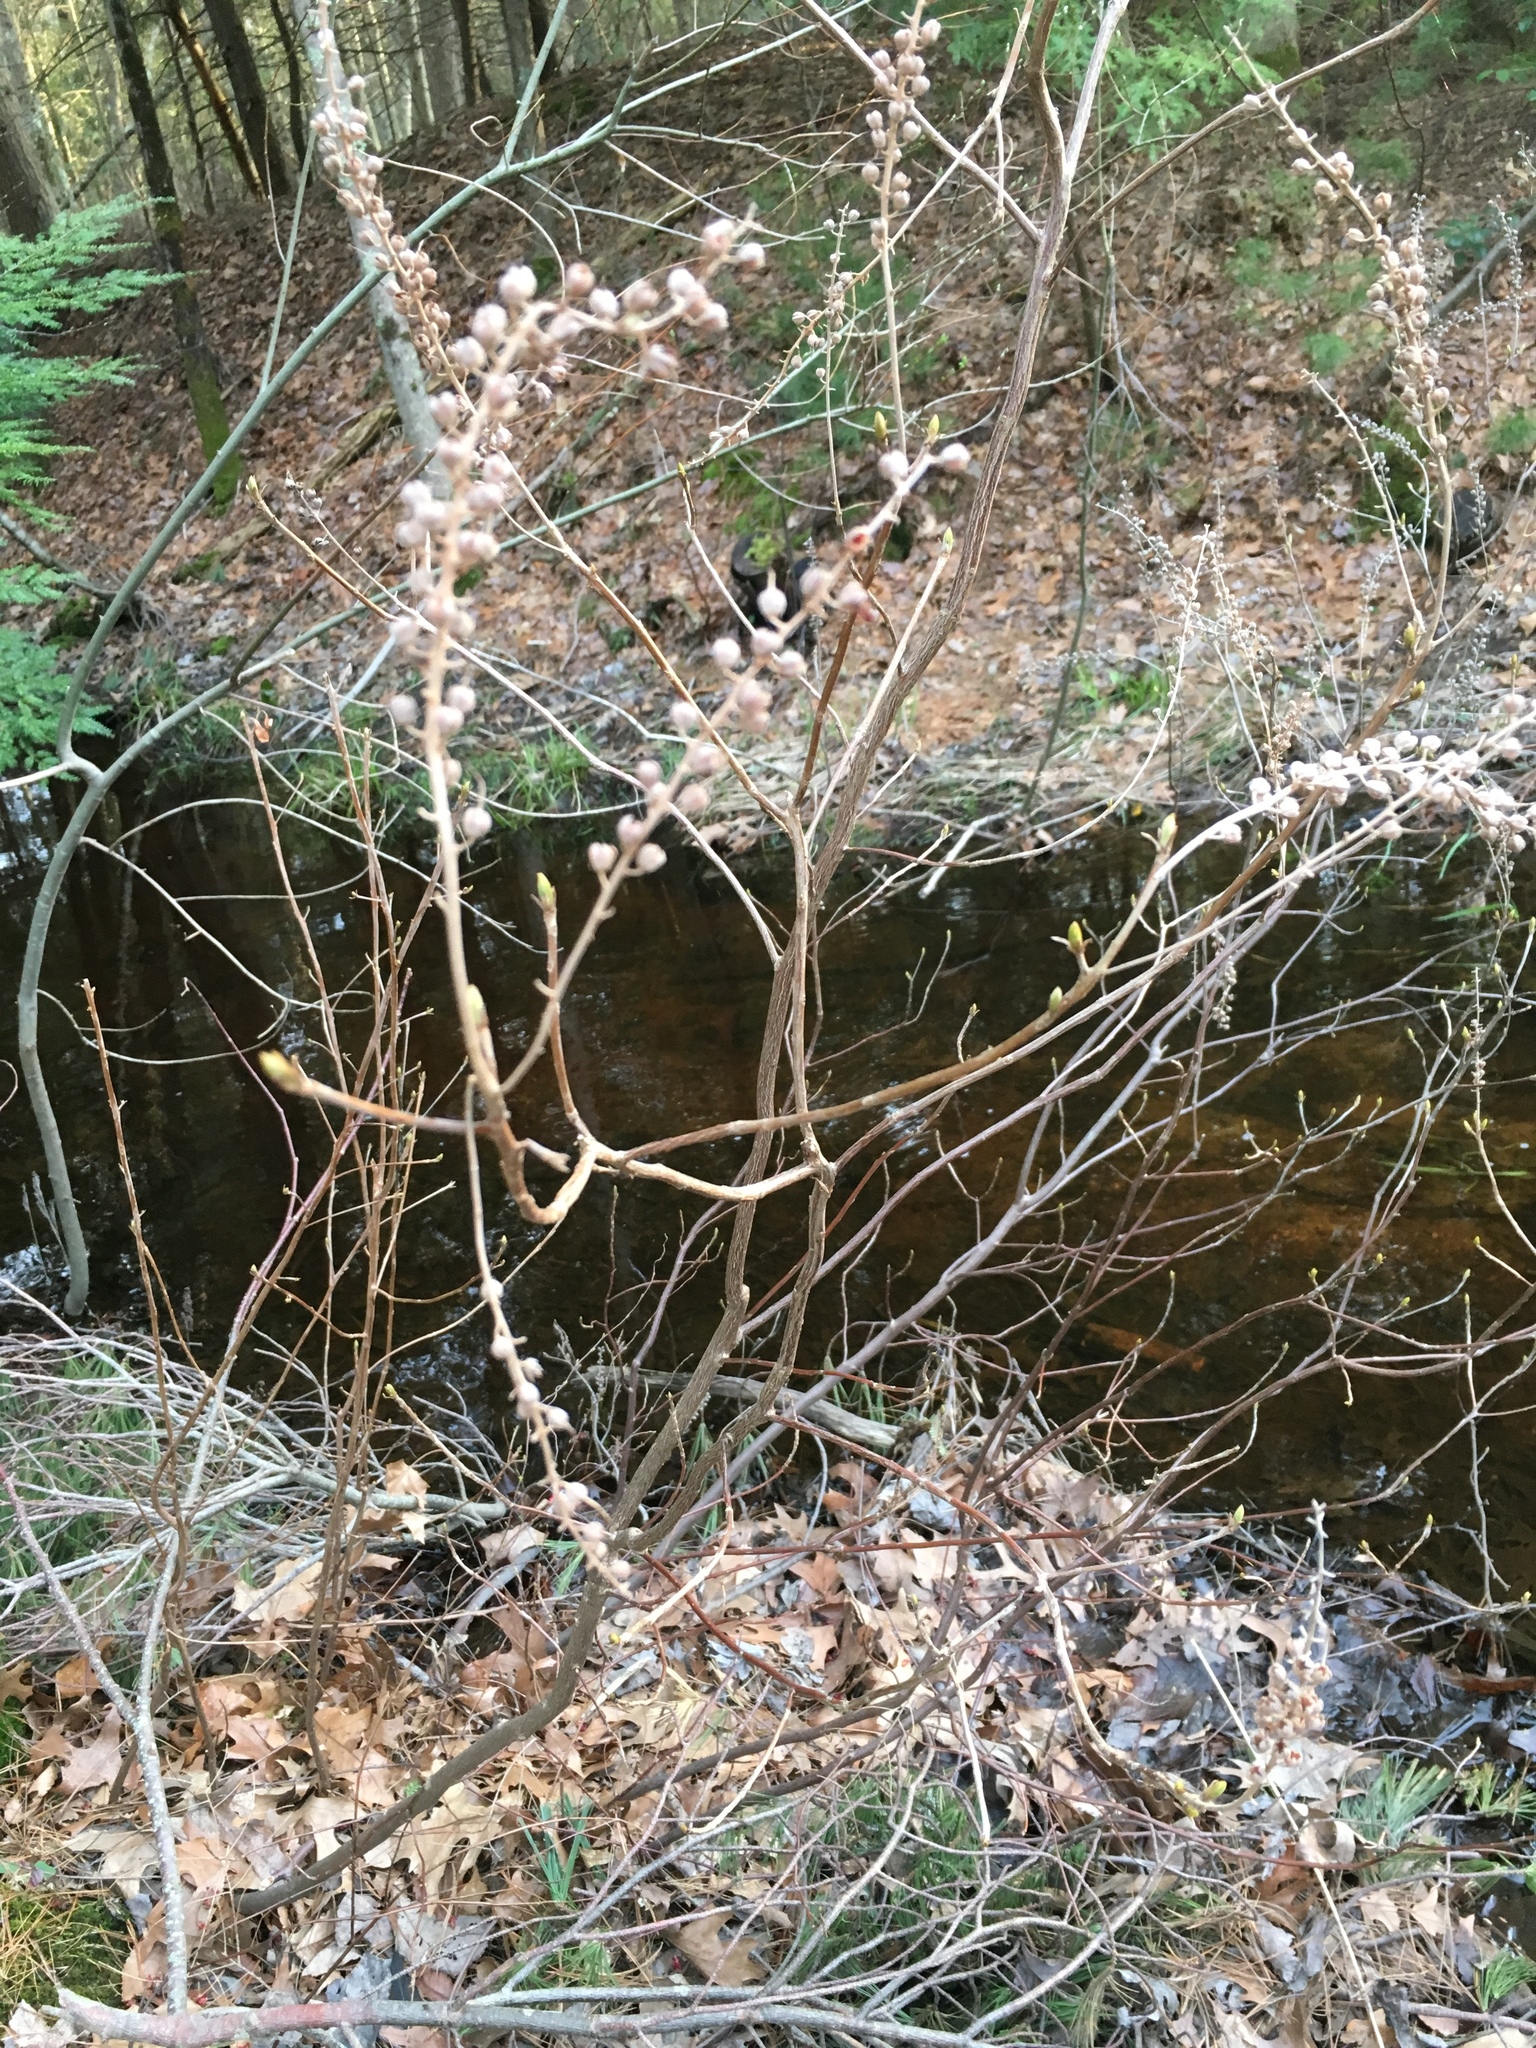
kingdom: Plantae
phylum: Tracheophyta
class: Magnoliopsida
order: Ericales
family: Clethraceae
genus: Clethra
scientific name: Clethra alnifolia
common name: Sweet pepperbush
